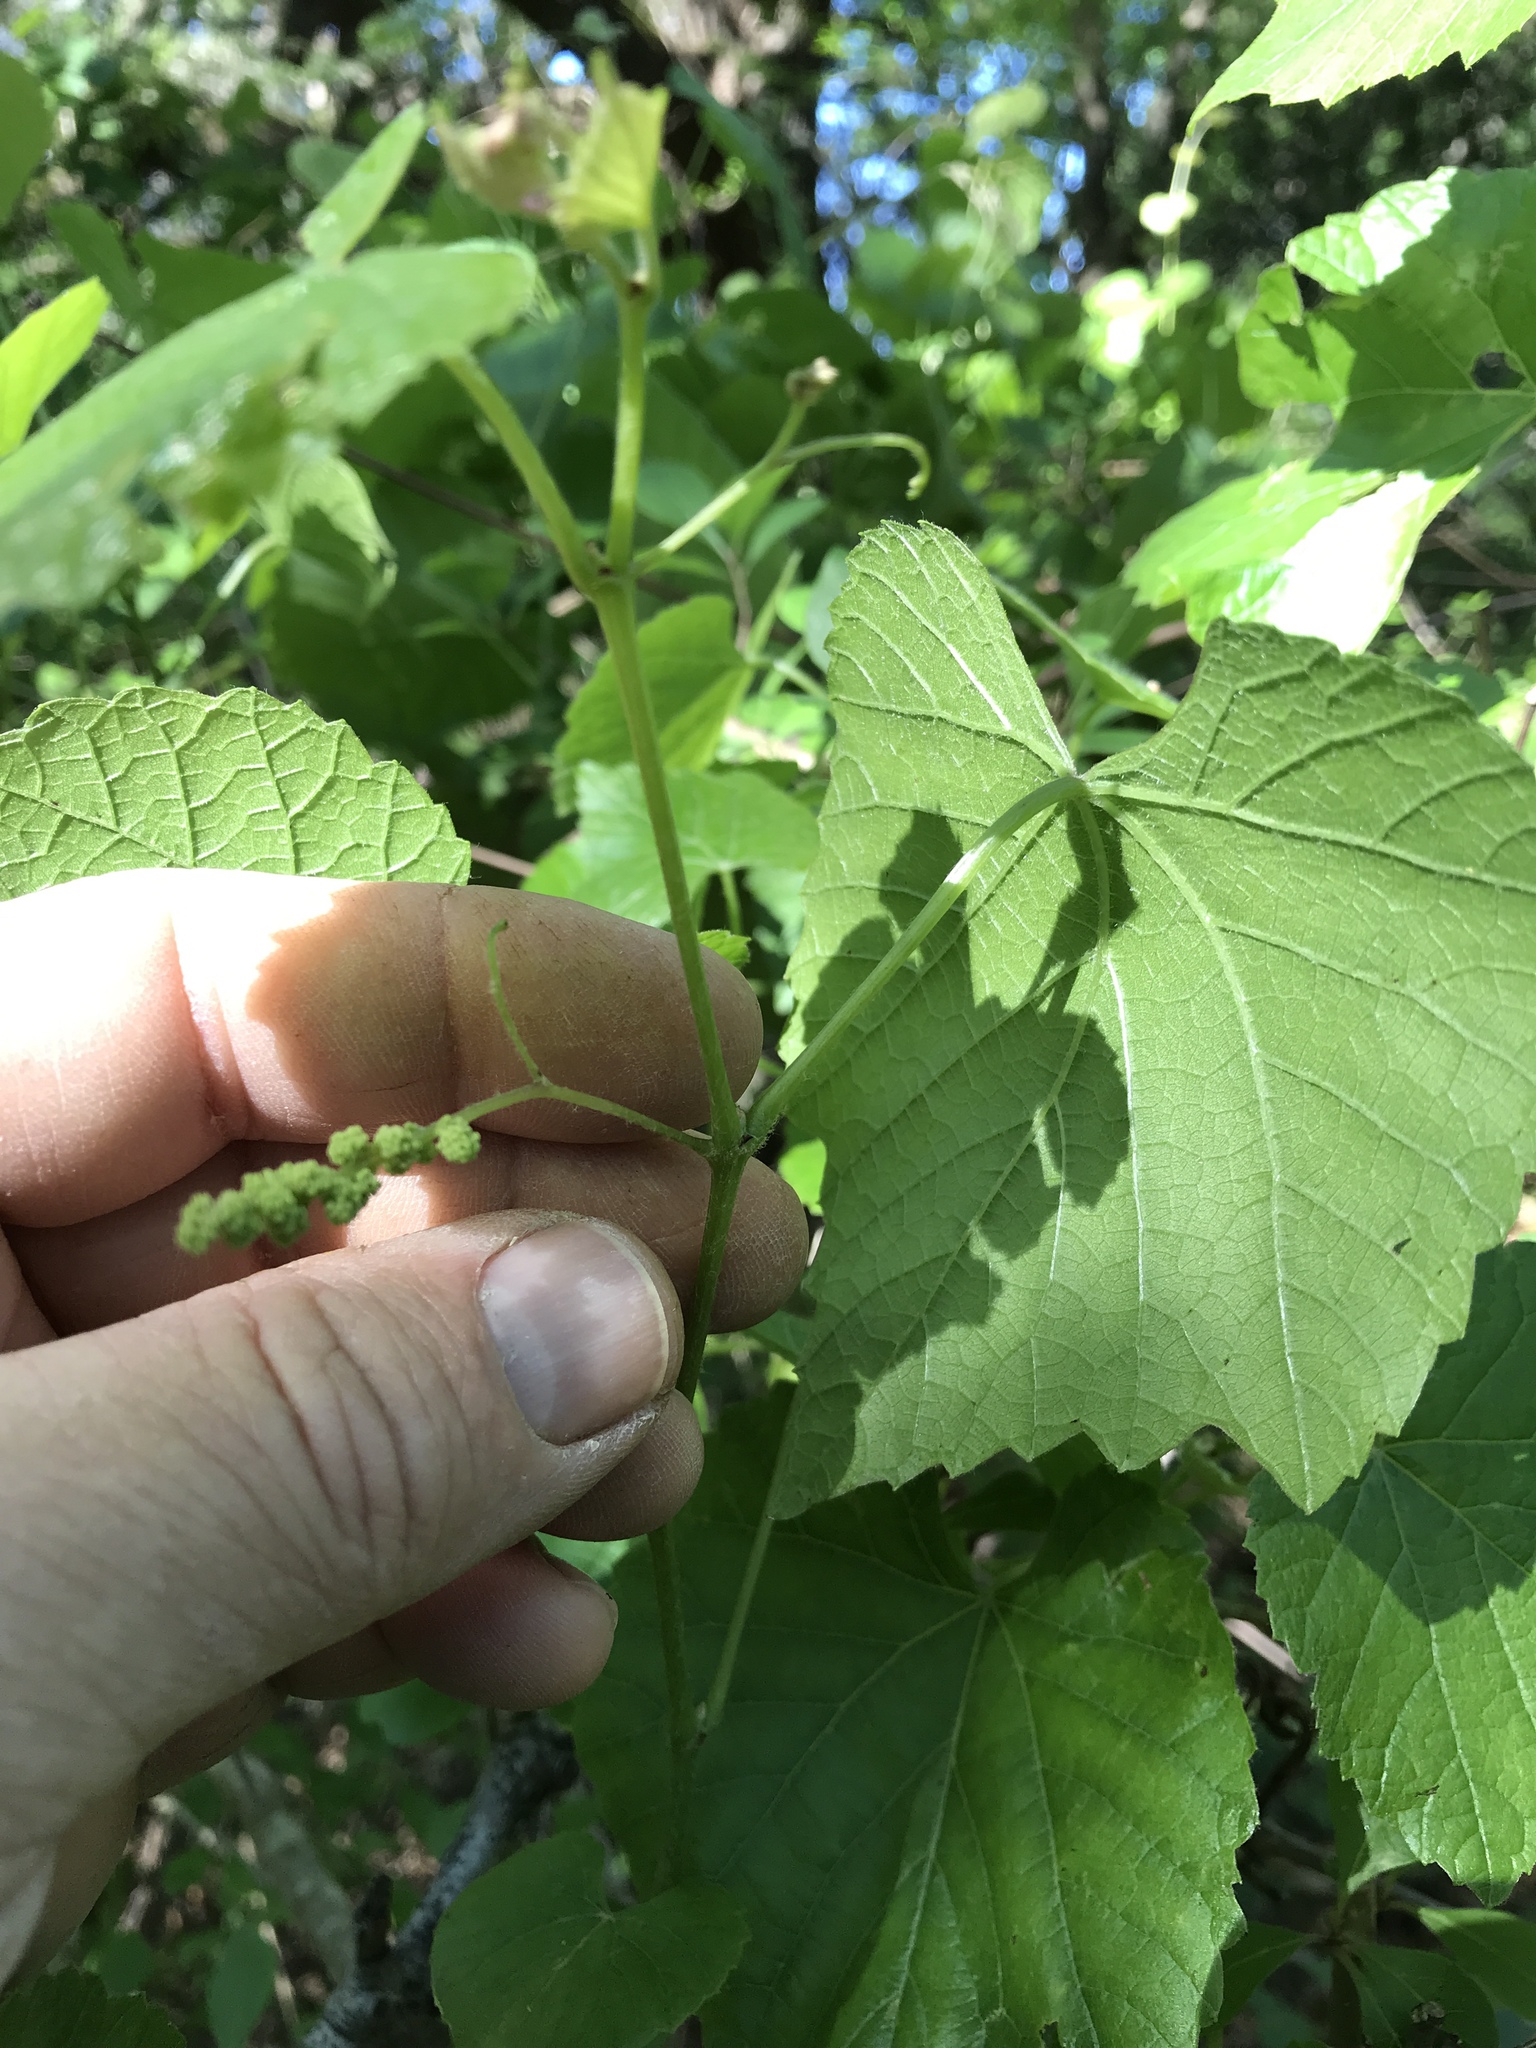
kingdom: Plantae
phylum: Tracheophyta
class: Magnoliopsida
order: Vitales
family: Vitaceae
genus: Vitis
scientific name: Vitis cinerea
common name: Ashy grape
